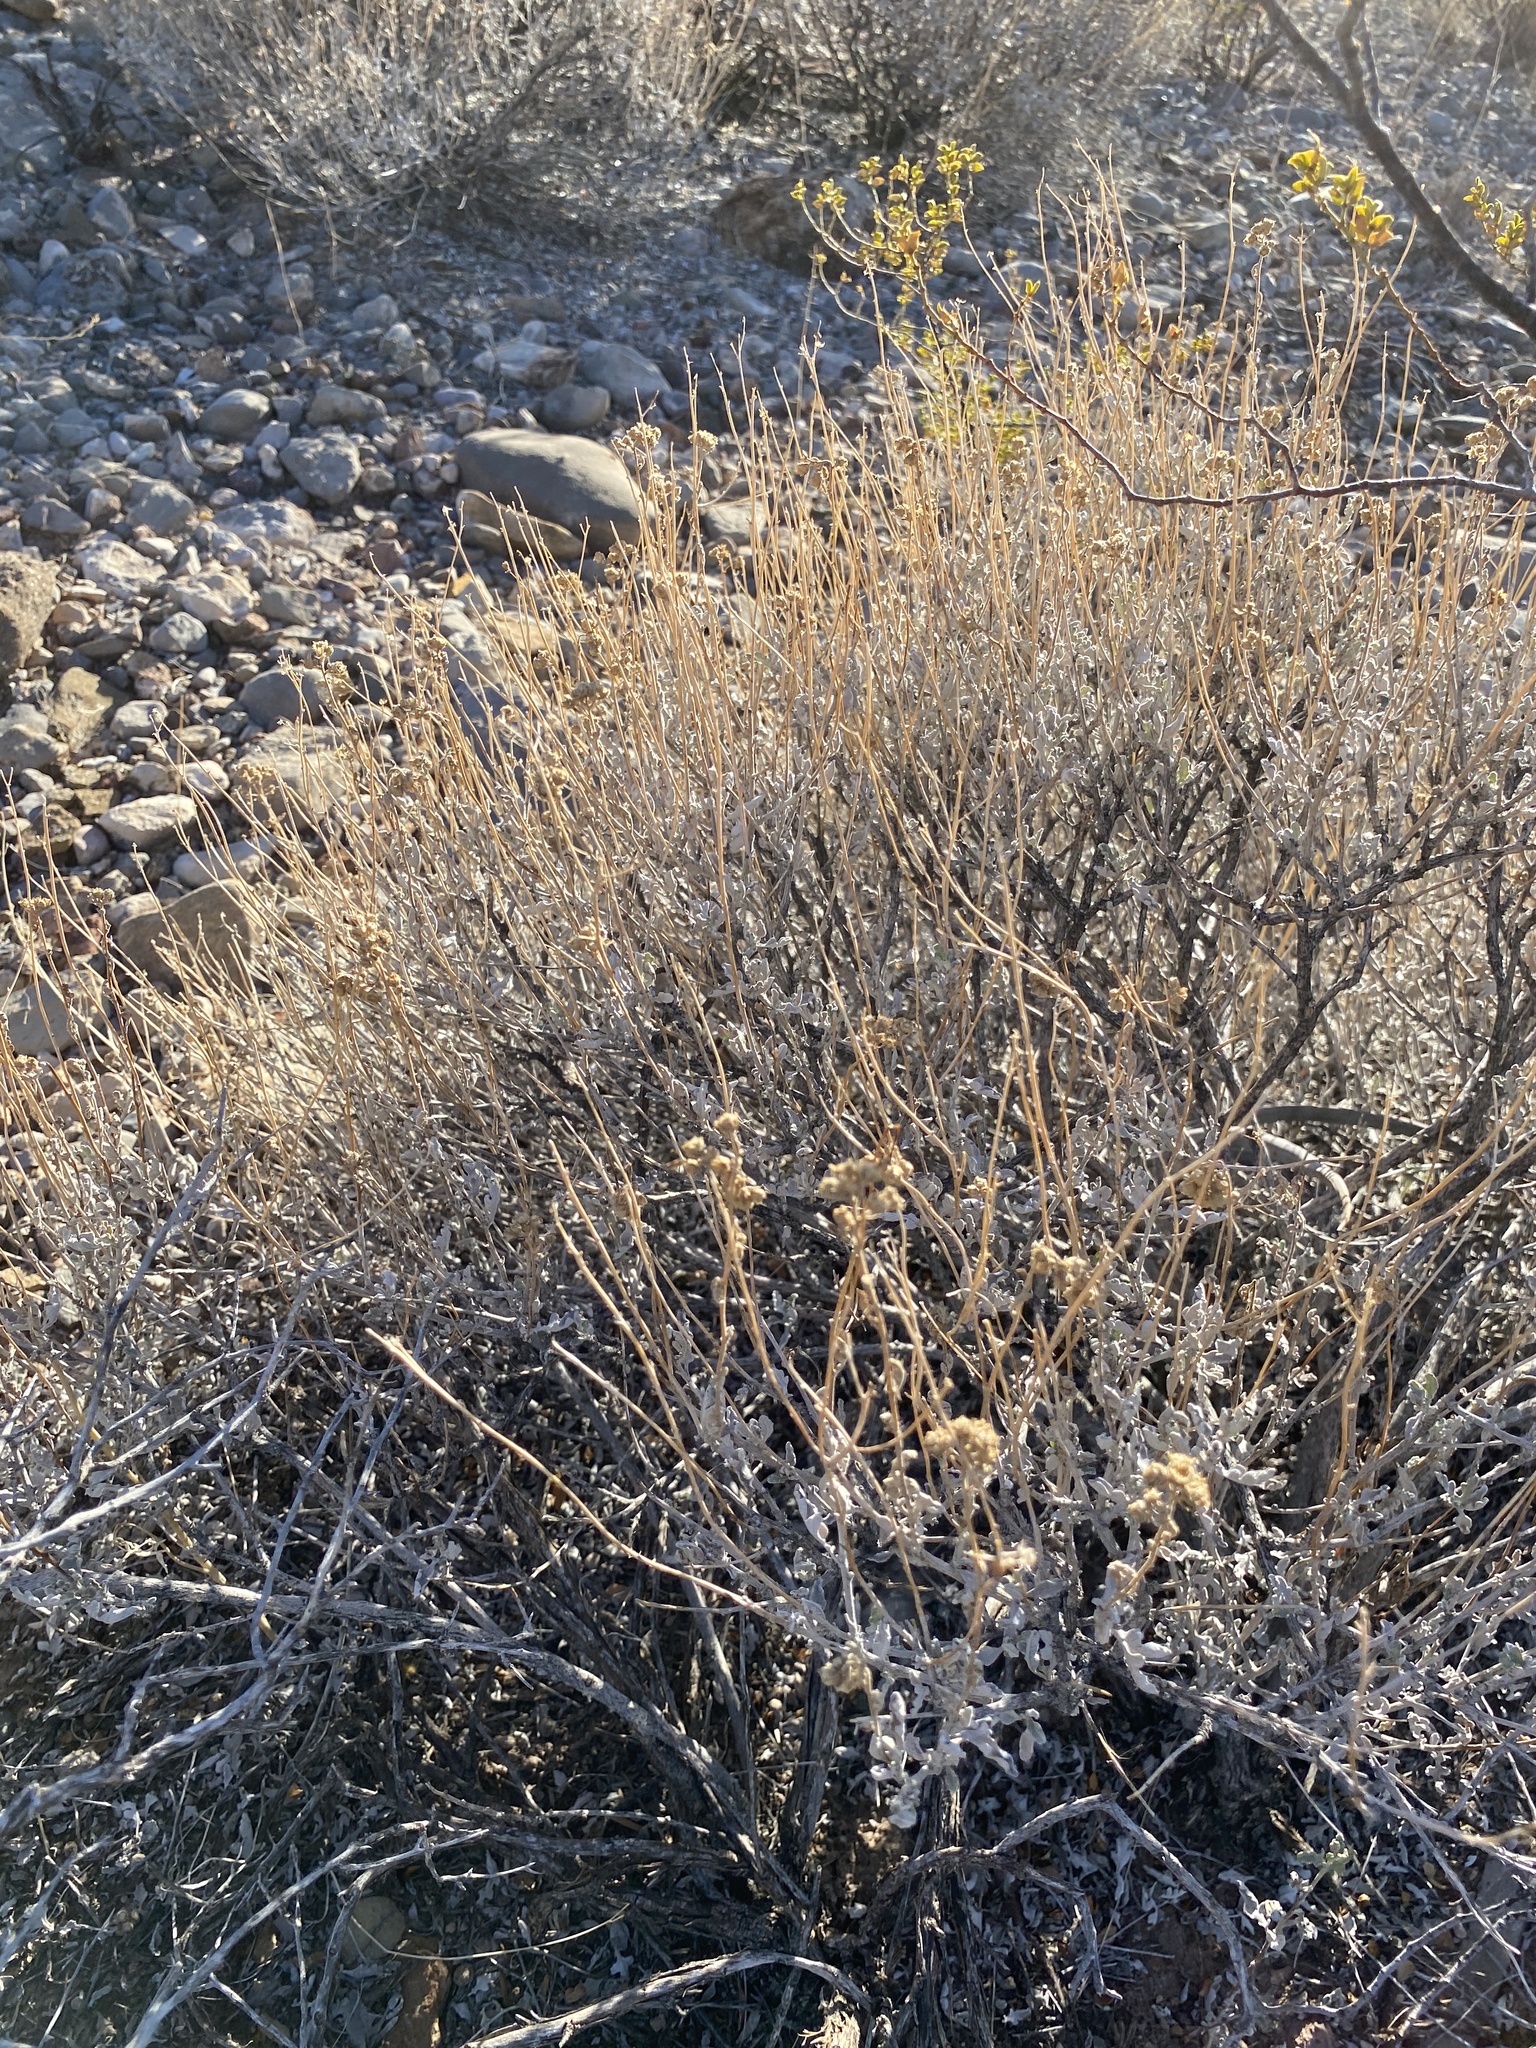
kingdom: Plantae
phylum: Tracheophyta
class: Magnoliopsida
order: Asterales
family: Asteraceae
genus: Parthenium
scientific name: Parthenium incanum
